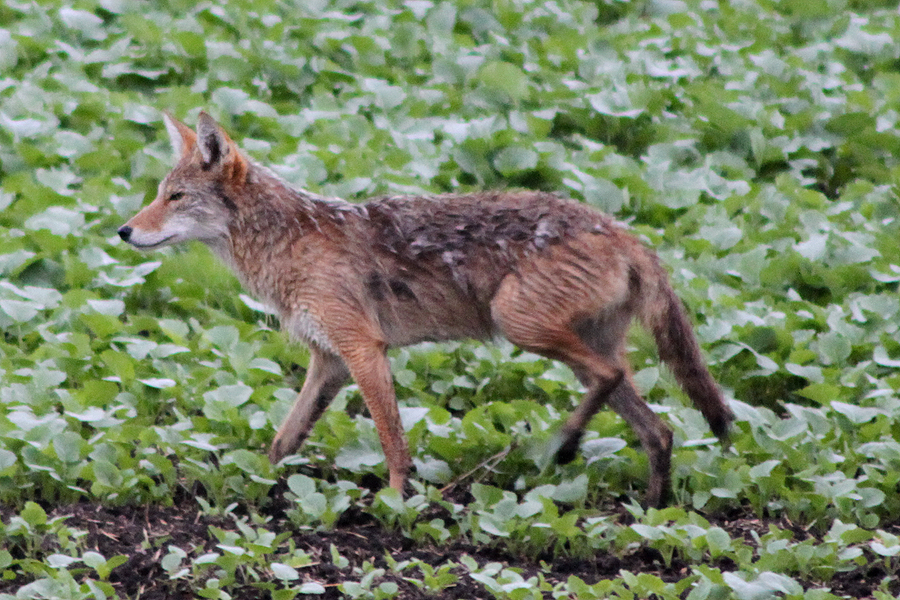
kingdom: Animalia
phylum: Chordata
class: Mammalia
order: Carnivora
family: Canidae
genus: Canis
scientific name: Canis latrans
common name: Coyote
